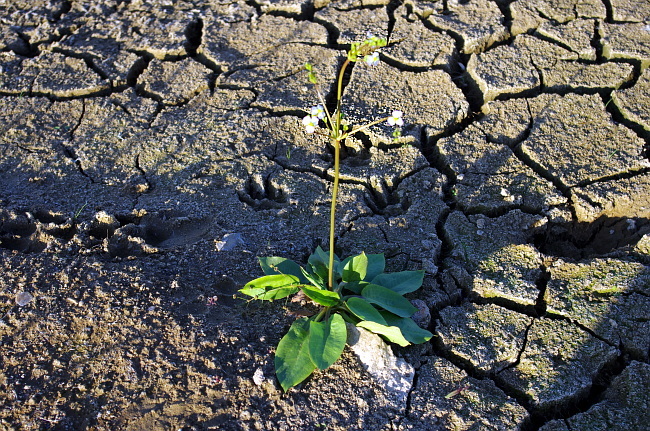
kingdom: Plantae
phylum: Tracheophyta
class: Liliopsida
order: Alismatales
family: Alismataceae
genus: Alisma
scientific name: Alisma plantago-aquatica
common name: Water-plantain
